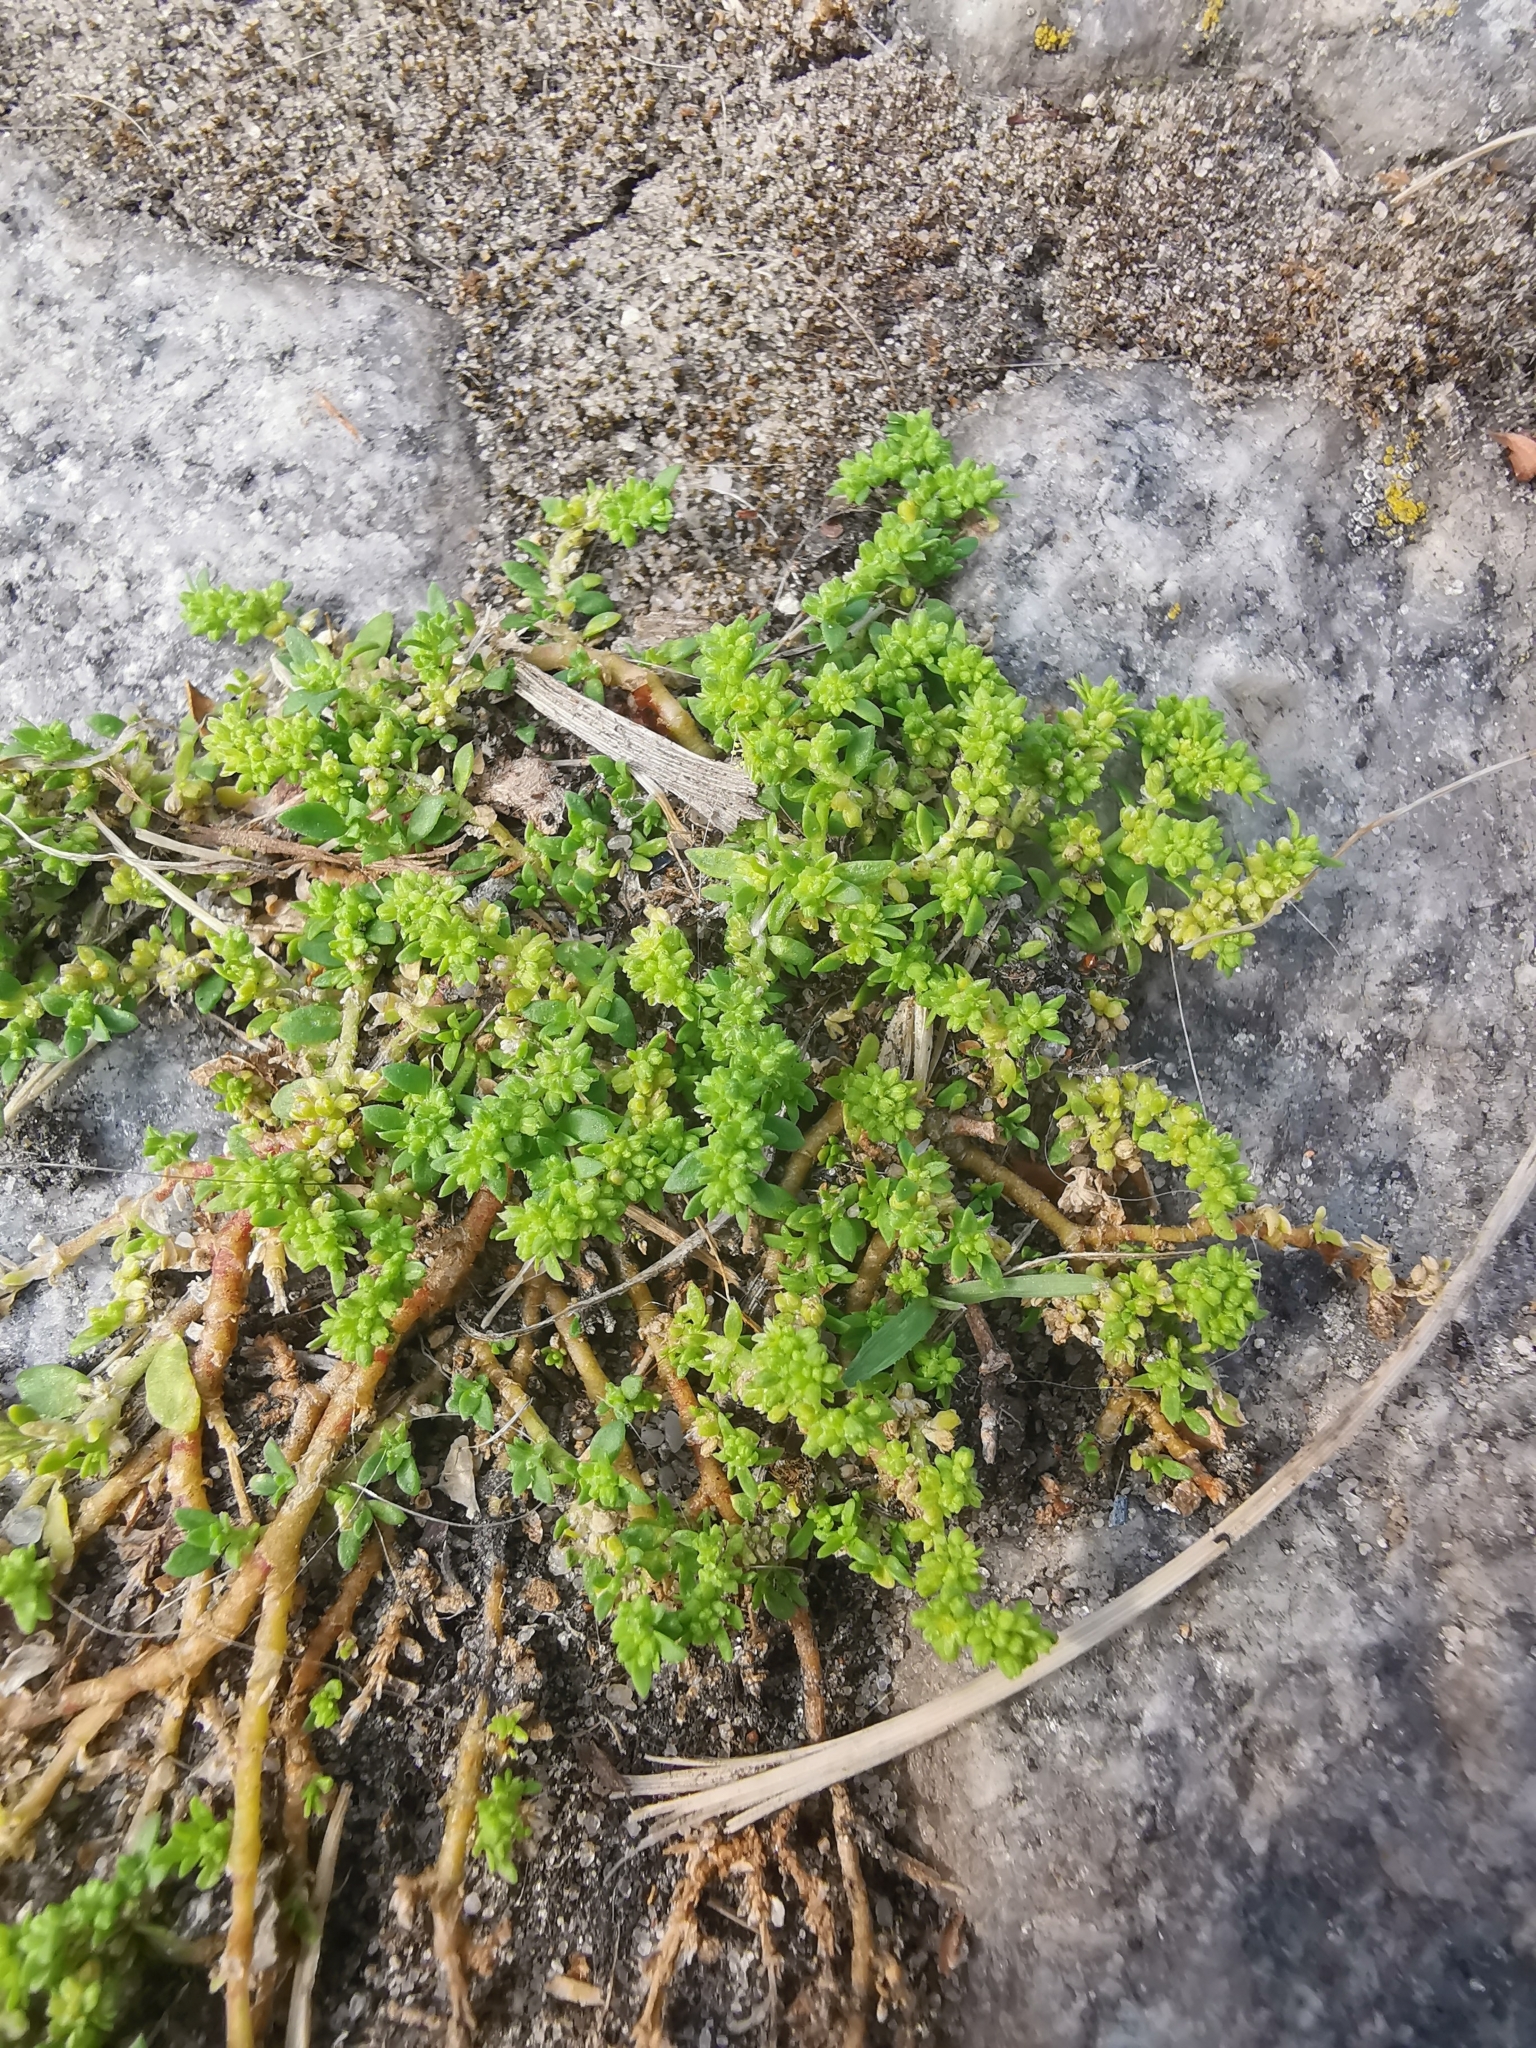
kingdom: Plantae
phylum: Tracheophyta
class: Magnoliopsida
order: Caryophyllales
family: Caryophyllaceae
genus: Herniaria
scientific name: Herniaria glabra
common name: Smooth rupturewort
